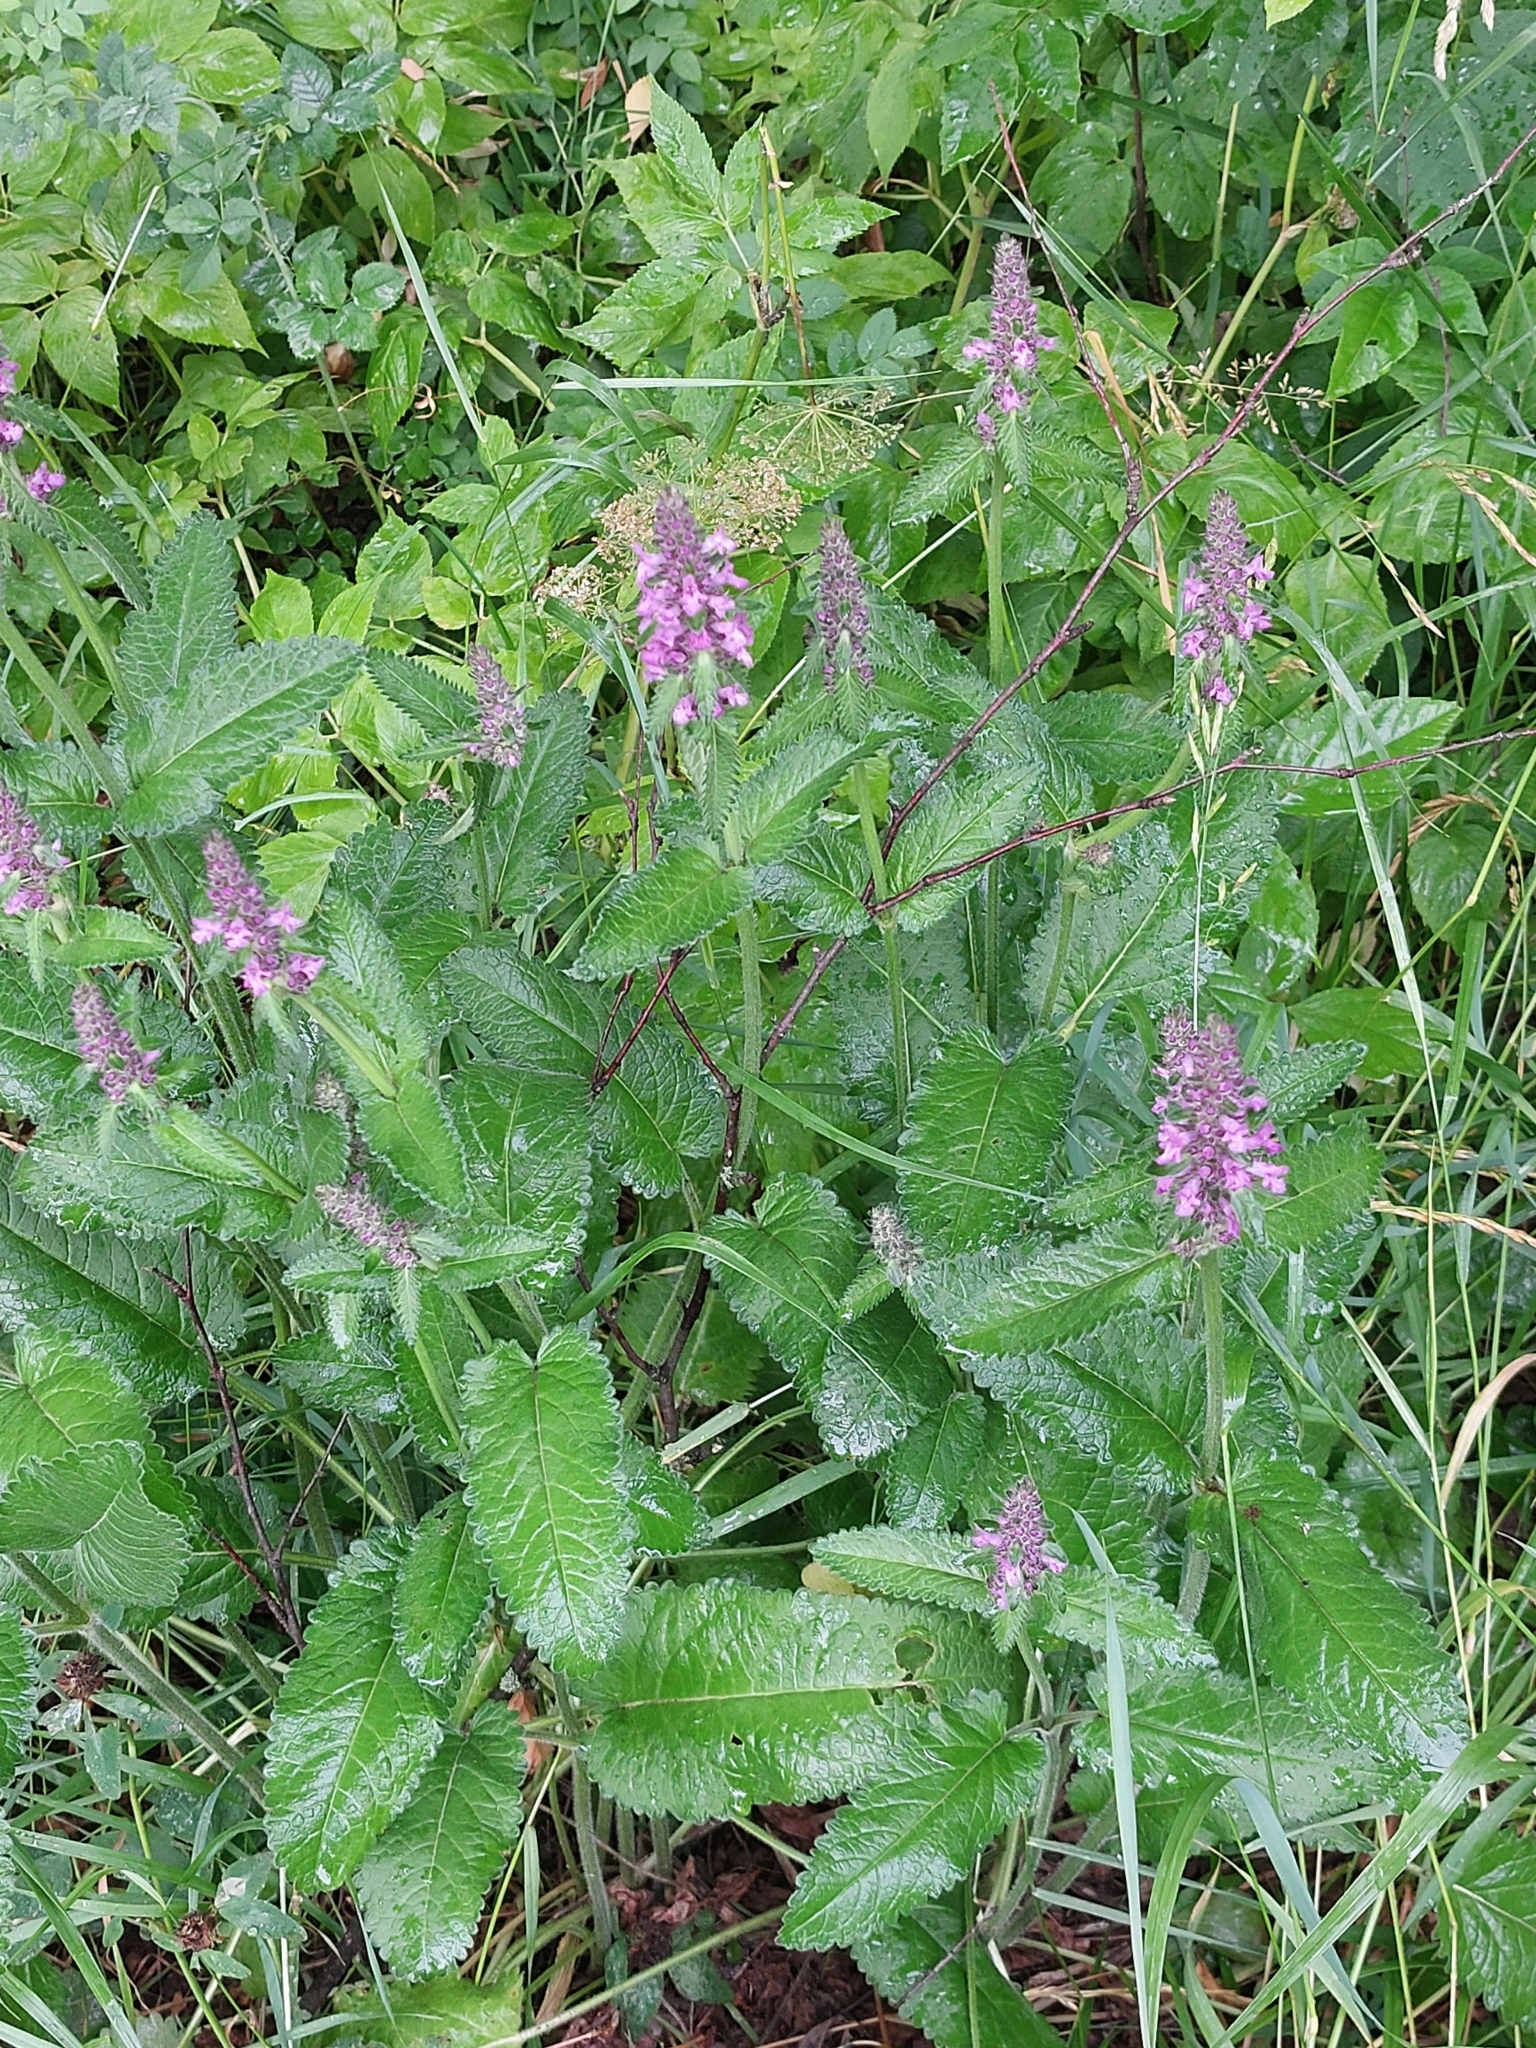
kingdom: Plantae
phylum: Tracheophyta
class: Magnoliopsida
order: Lamiales
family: Lamiaceae
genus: Betonica
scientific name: Betonica officinalis
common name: Bishop's-wort
